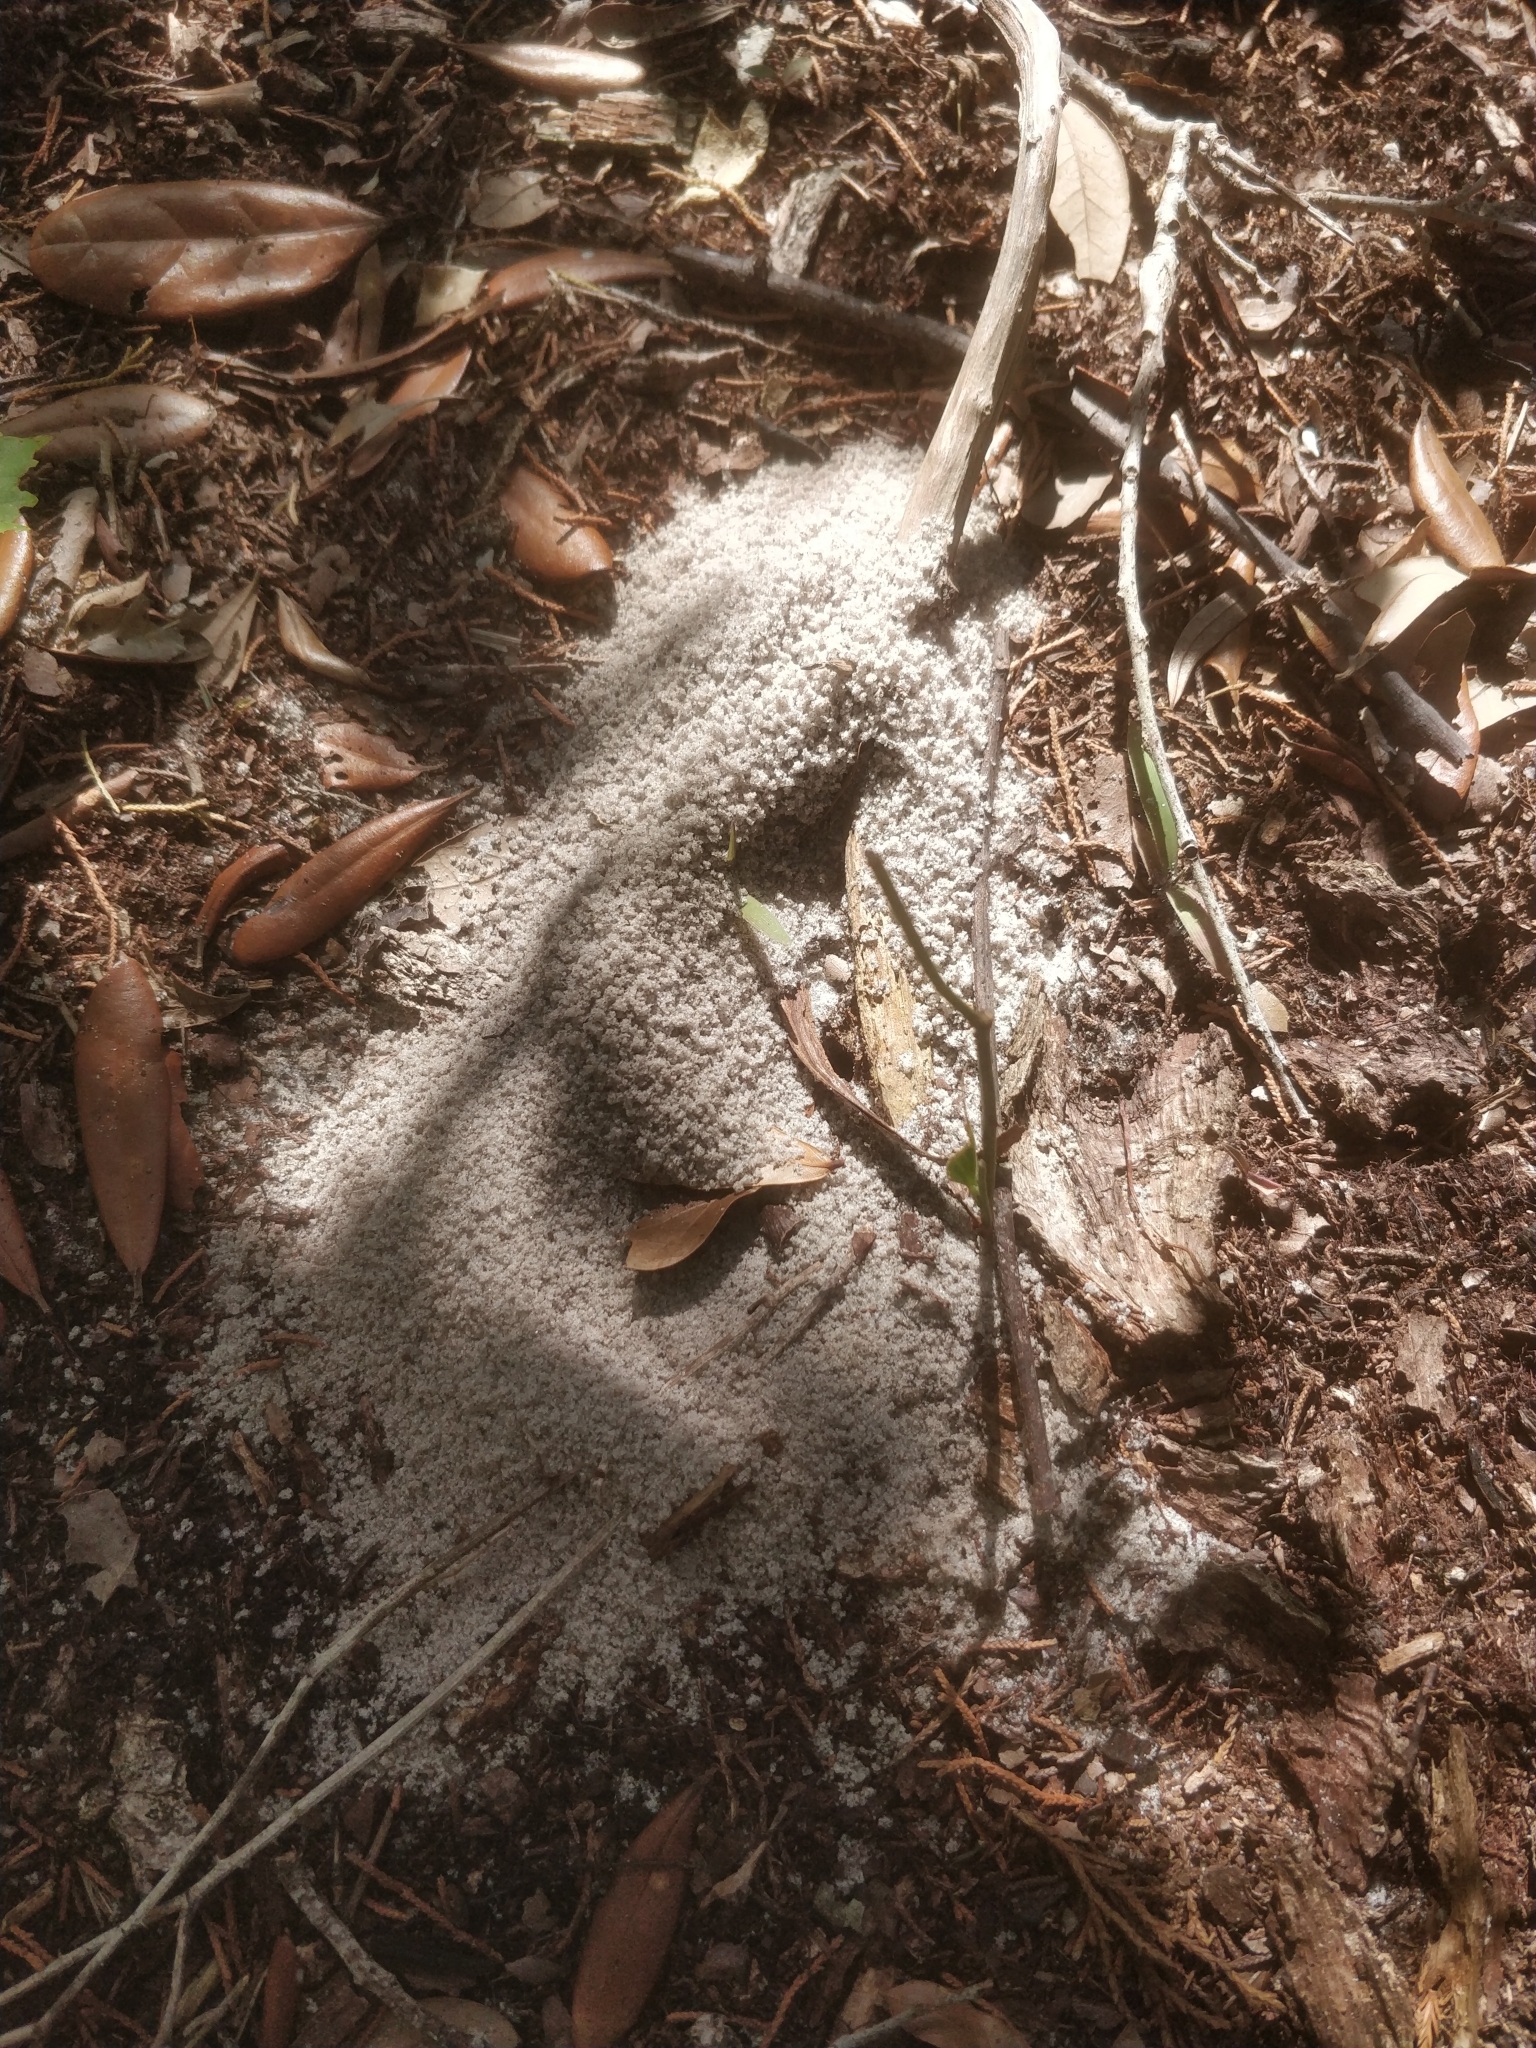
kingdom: Animalia
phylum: Arthropoda
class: Insecta
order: Hymenoptera
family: Formicidae
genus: Trachymyrmex
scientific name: Trachymyrmex septentrionalis
